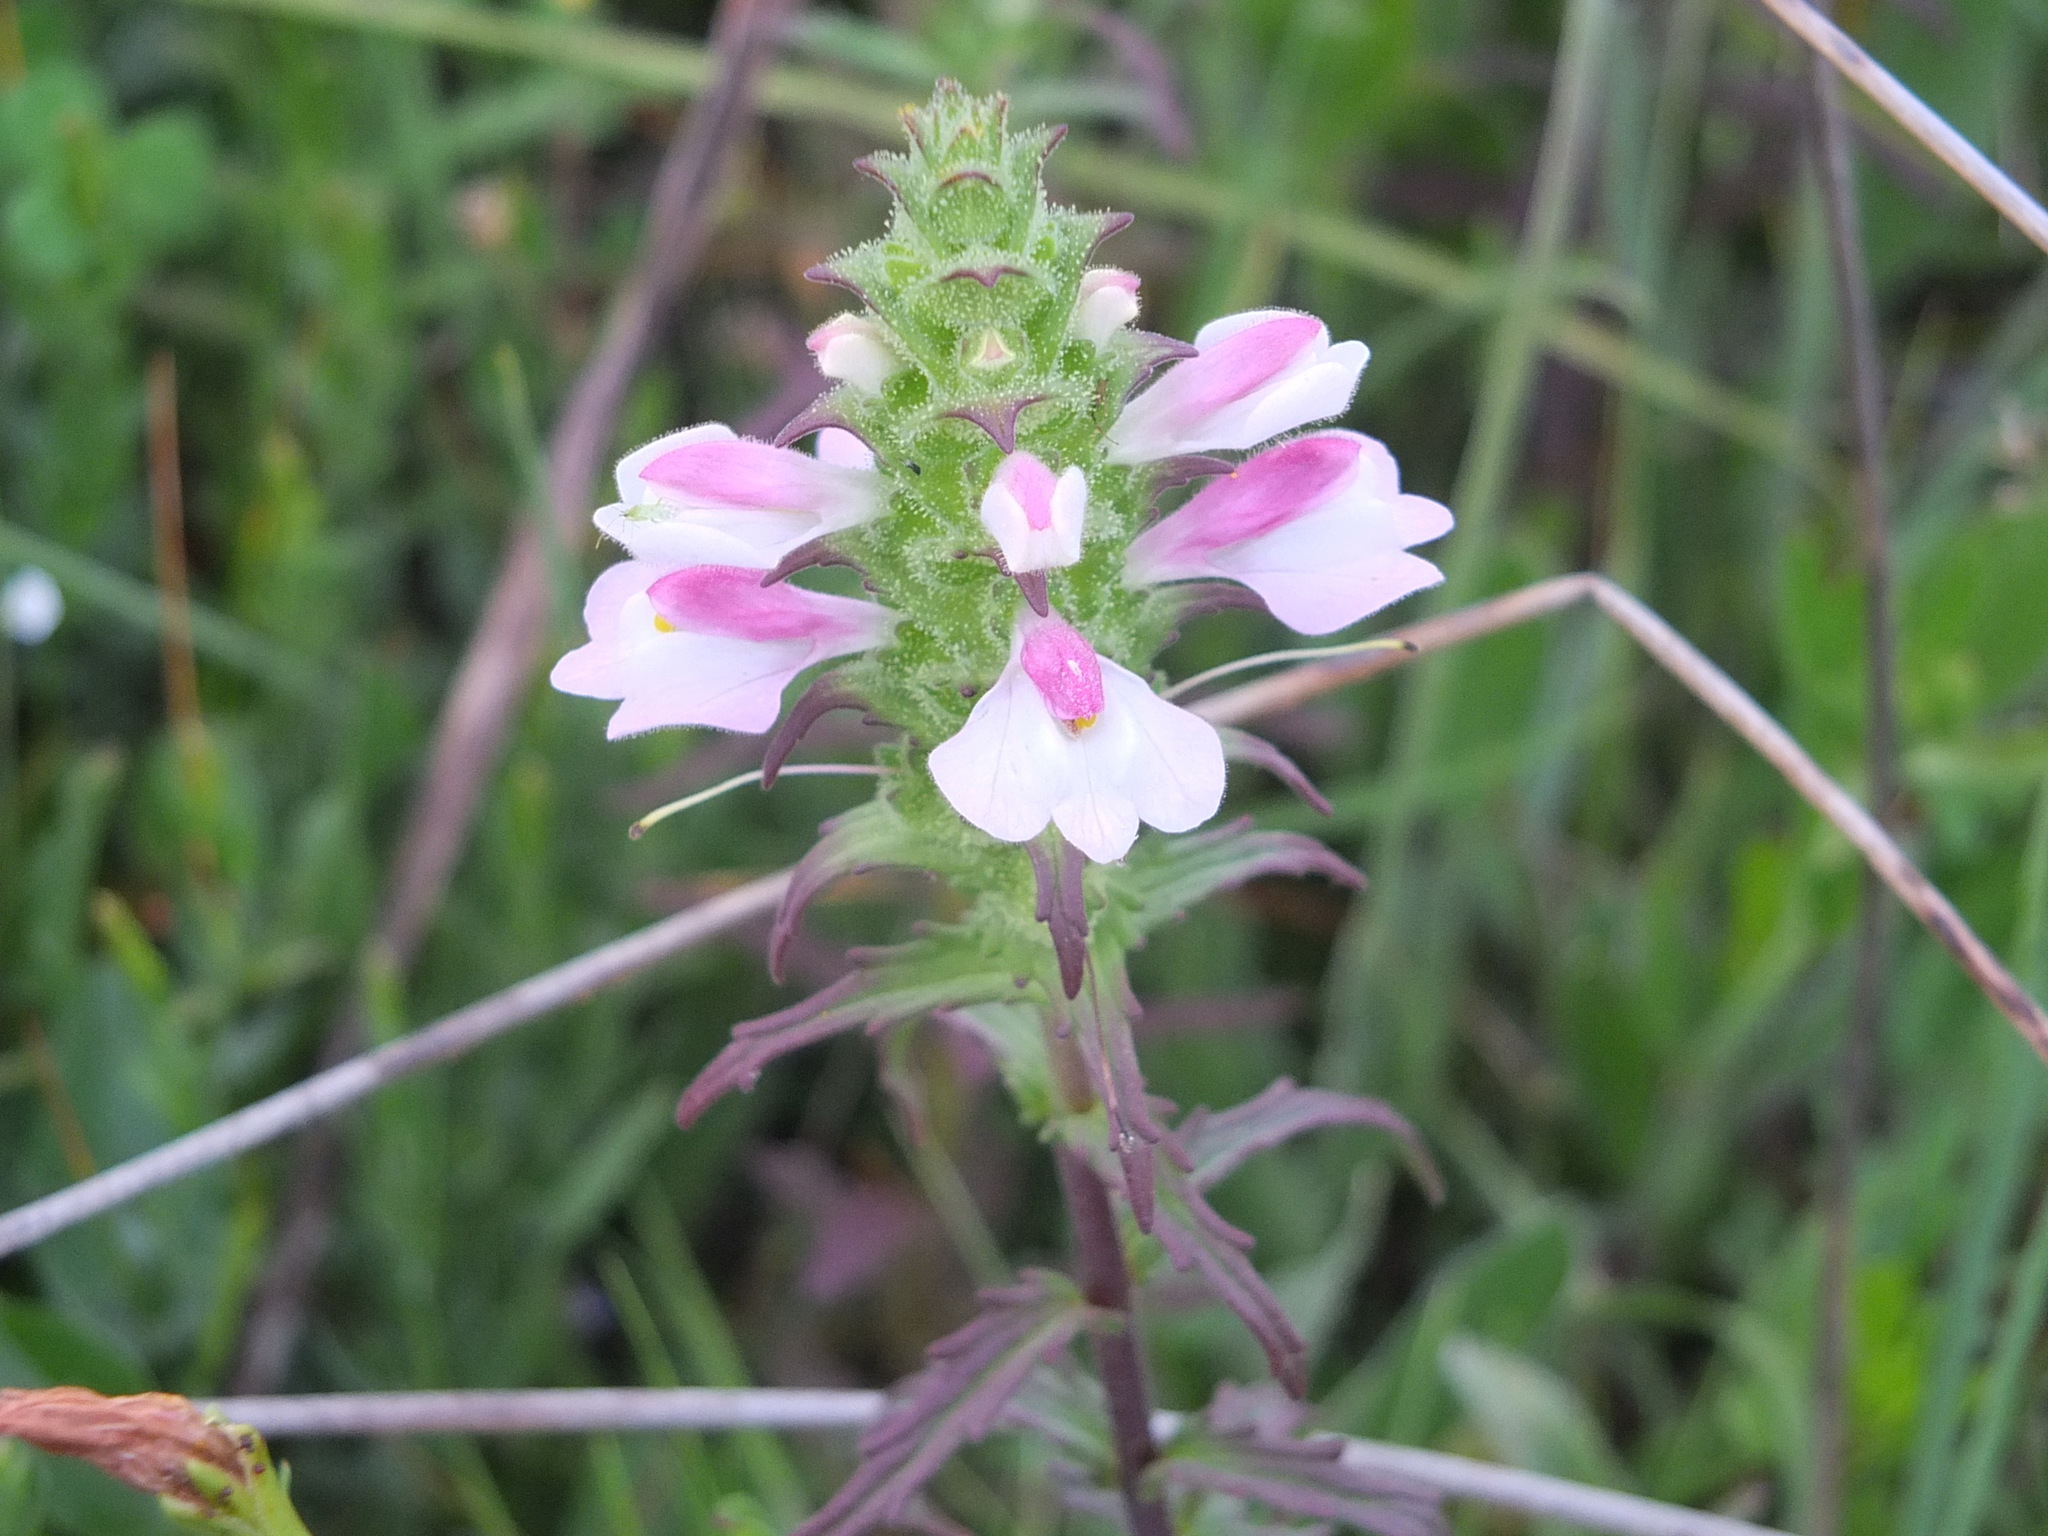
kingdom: Plantae
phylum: Tracheophyta
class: Magnoliopsida
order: Lamiales
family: Orobanchaceae
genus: Bellardia
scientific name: Bellardia trixago
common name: Mediterranean lineseed
